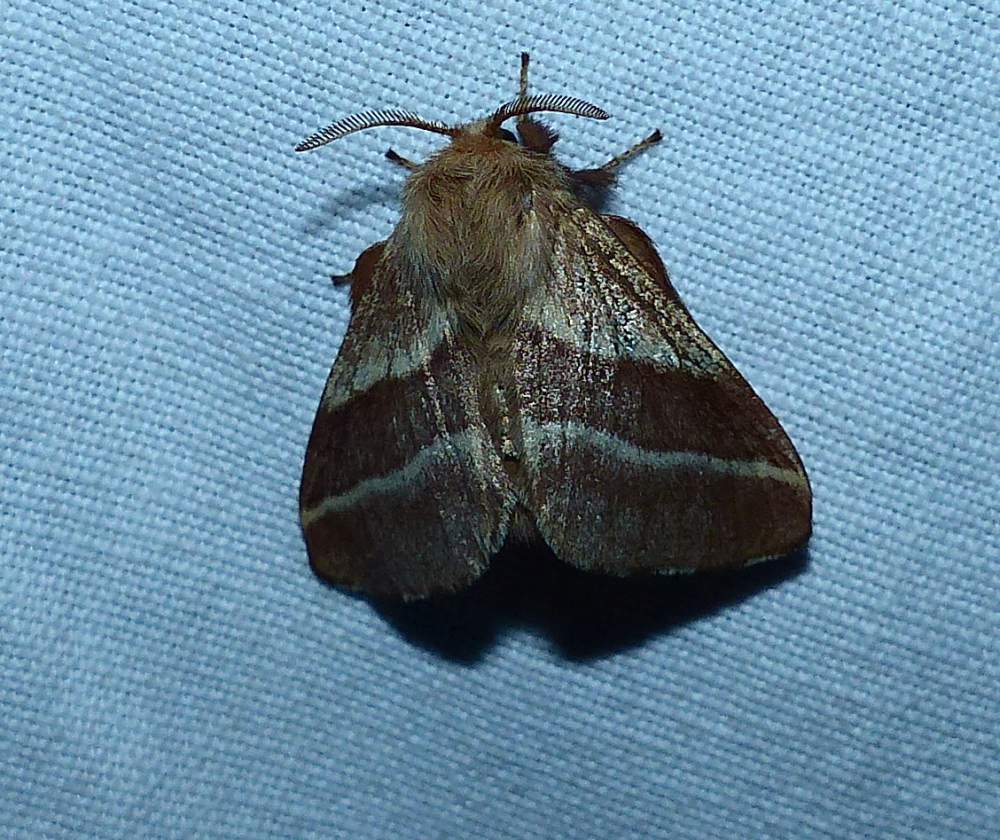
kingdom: Animalia
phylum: Arthropoda
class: Insecta
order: Lepidoptera
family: Lasiocampidae
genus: Malacosoma
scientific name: Malacosoma americana
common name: Eastern tent caterpillar moth
